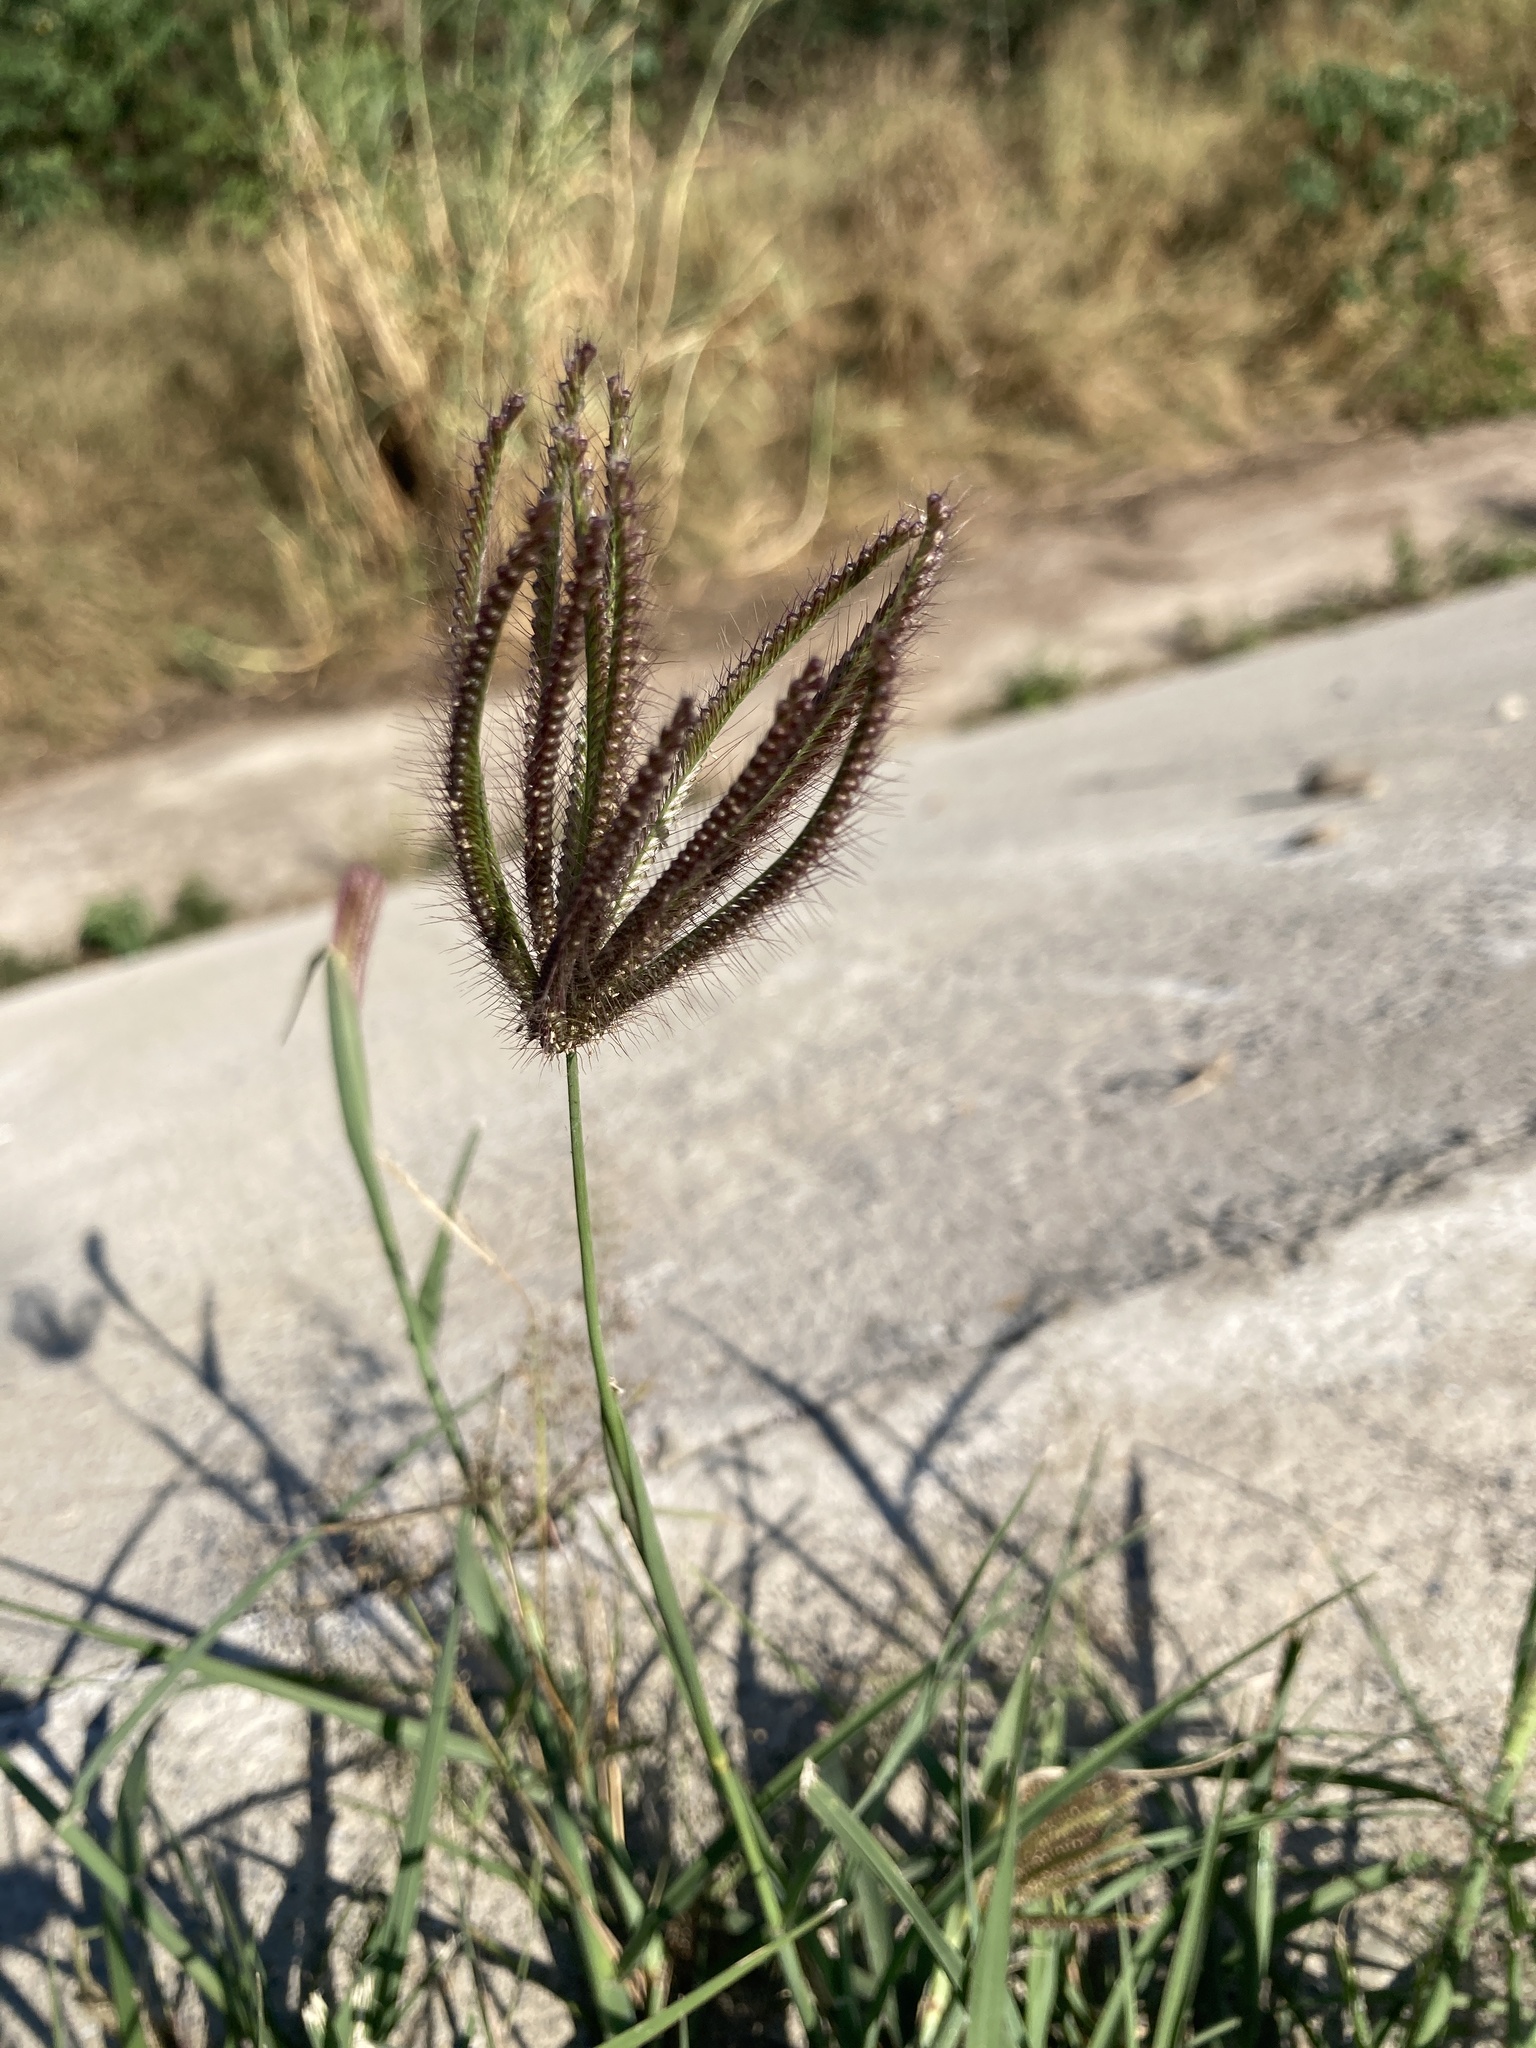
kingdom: Plantae
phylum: Tracheophyta
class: Liliopsida
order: Poales
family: Poaceae
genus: Chloris
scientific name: Chloris barbata
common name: Swollen fingergrass
